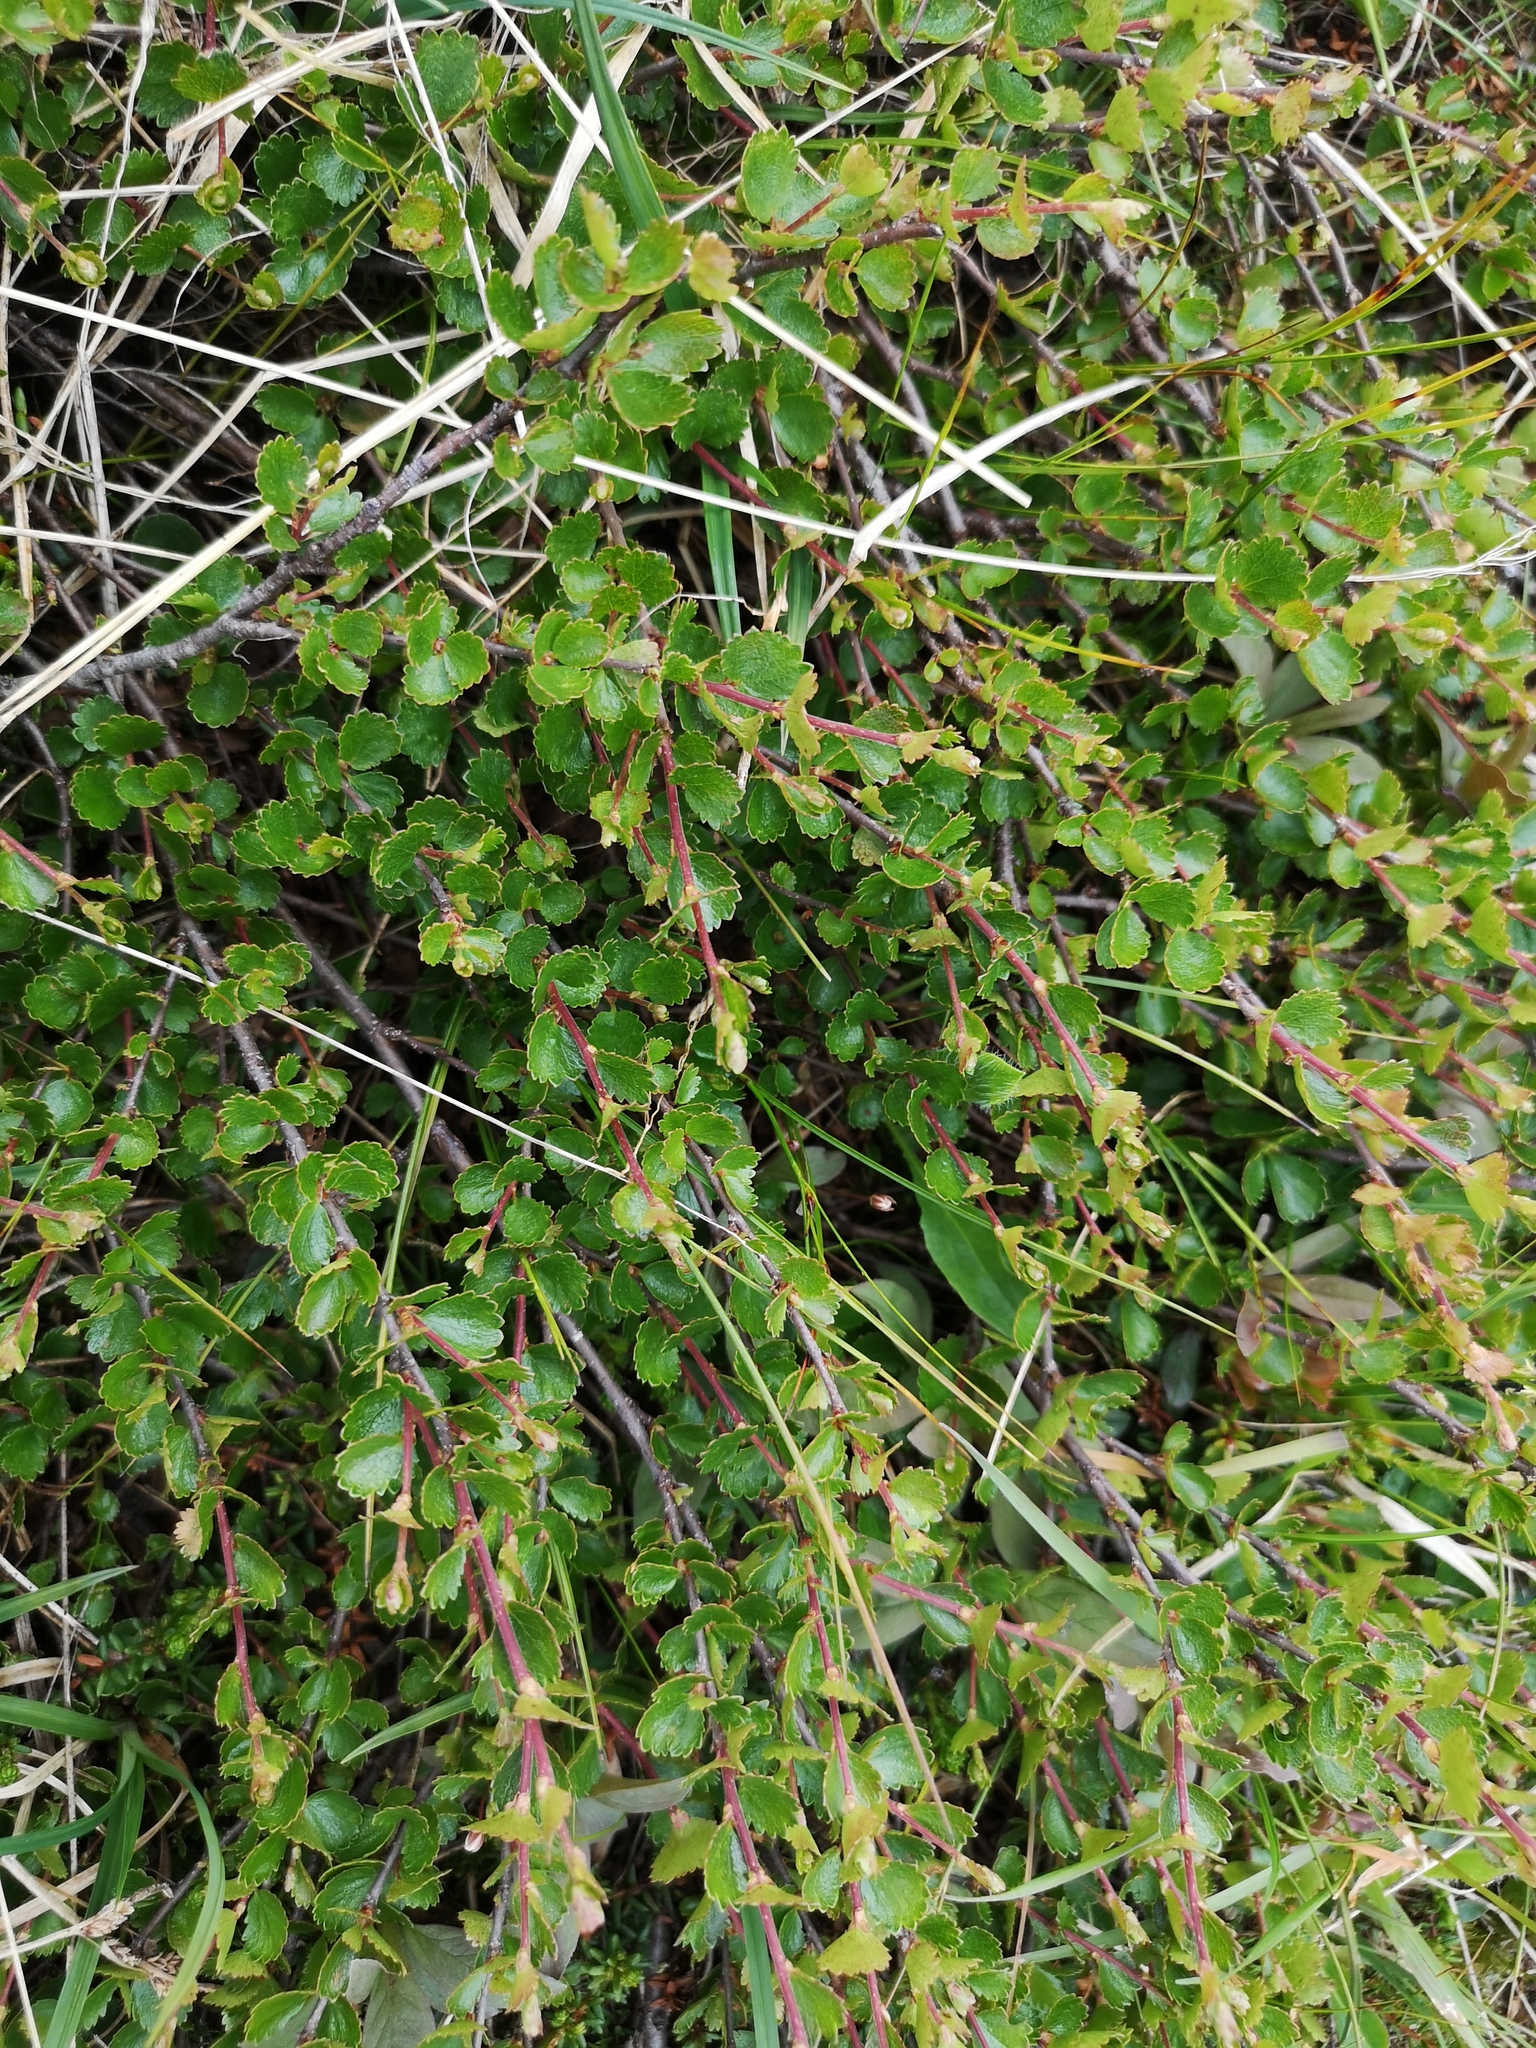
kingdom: Plantae
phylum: Tracheophyta
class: Magnoliopsida
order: Fagales
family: Betulaceae
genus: Betula
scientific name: Betula nana
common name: Arctic dwarf birch
